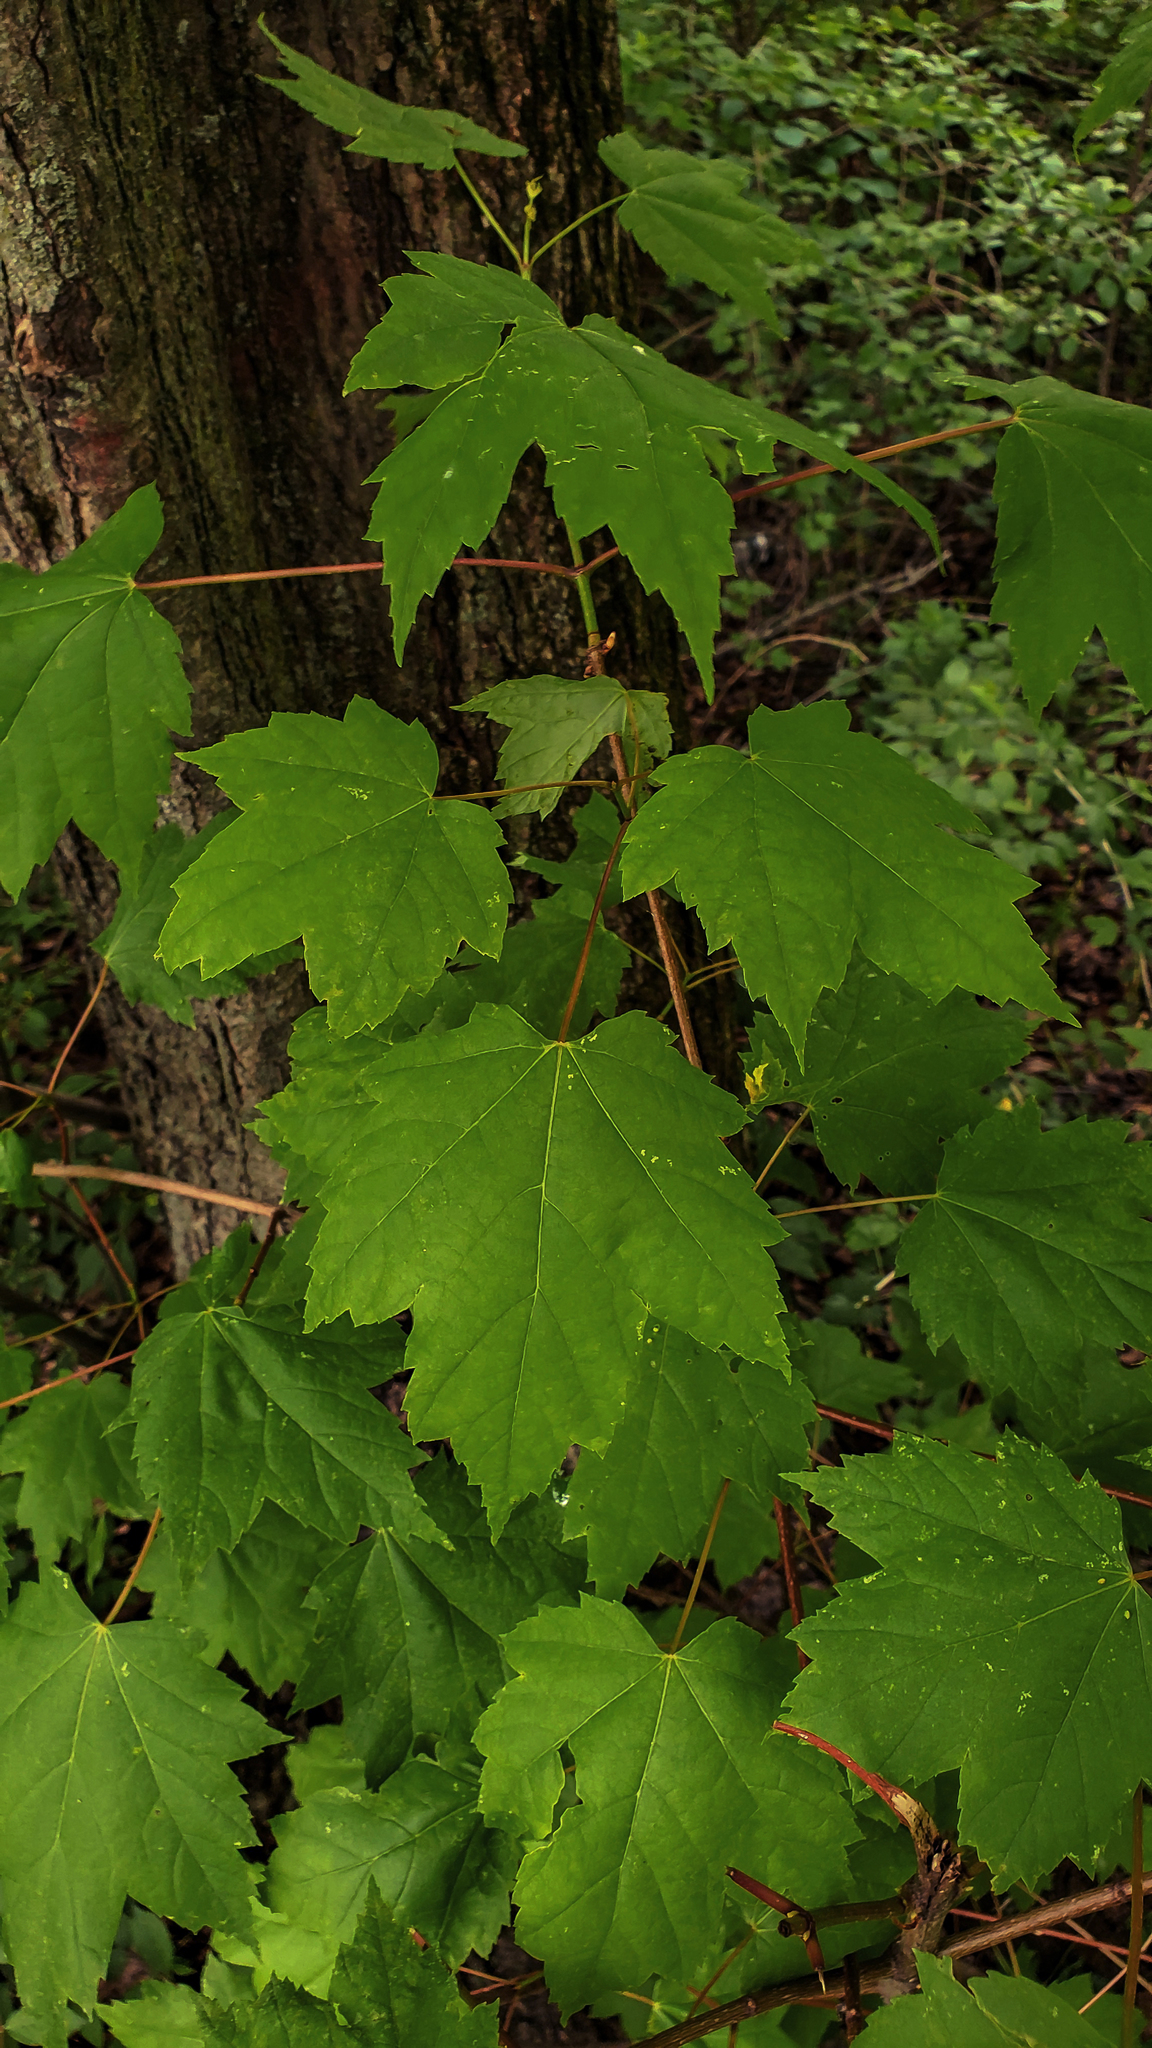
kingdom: Plantae
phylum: Tracheophyta
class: Magnoliopsida
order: Sapindales
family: Sapindaceae
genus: Acer
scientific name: Acer rubrum
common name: Red maple
